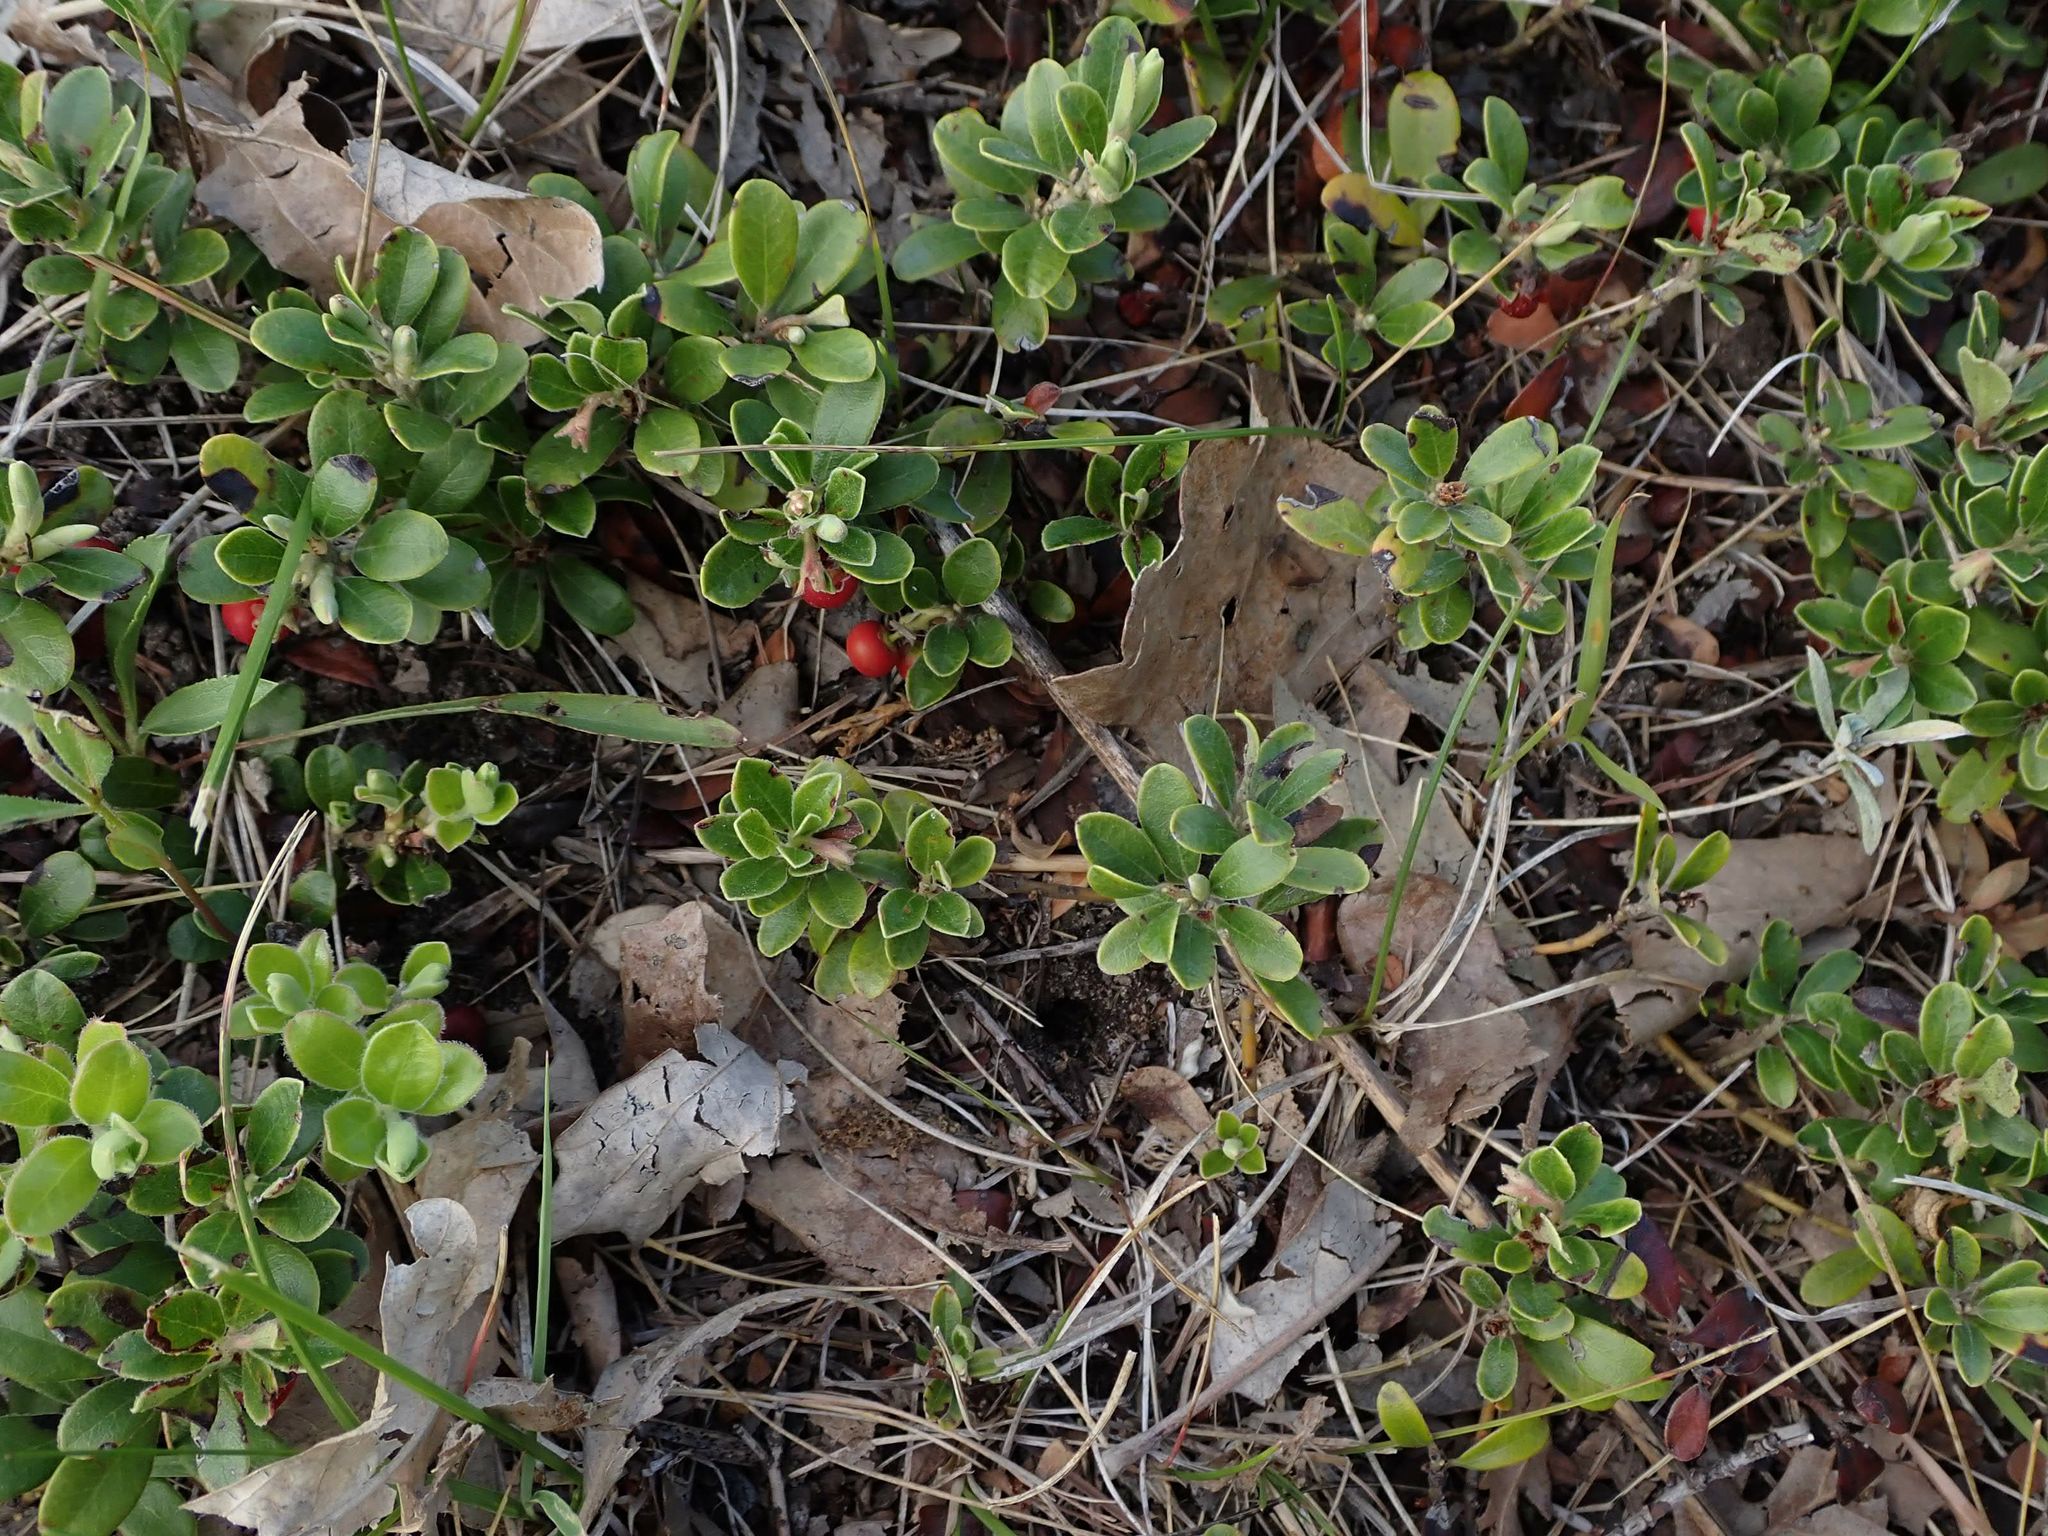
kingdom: Plantae
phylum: Tracheophyta
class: Magnoliopsida
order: Ericales
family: Ericaceae
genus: Arctostaphylos
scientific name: Arctostaphylos uva-ursi
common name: Bearberry
